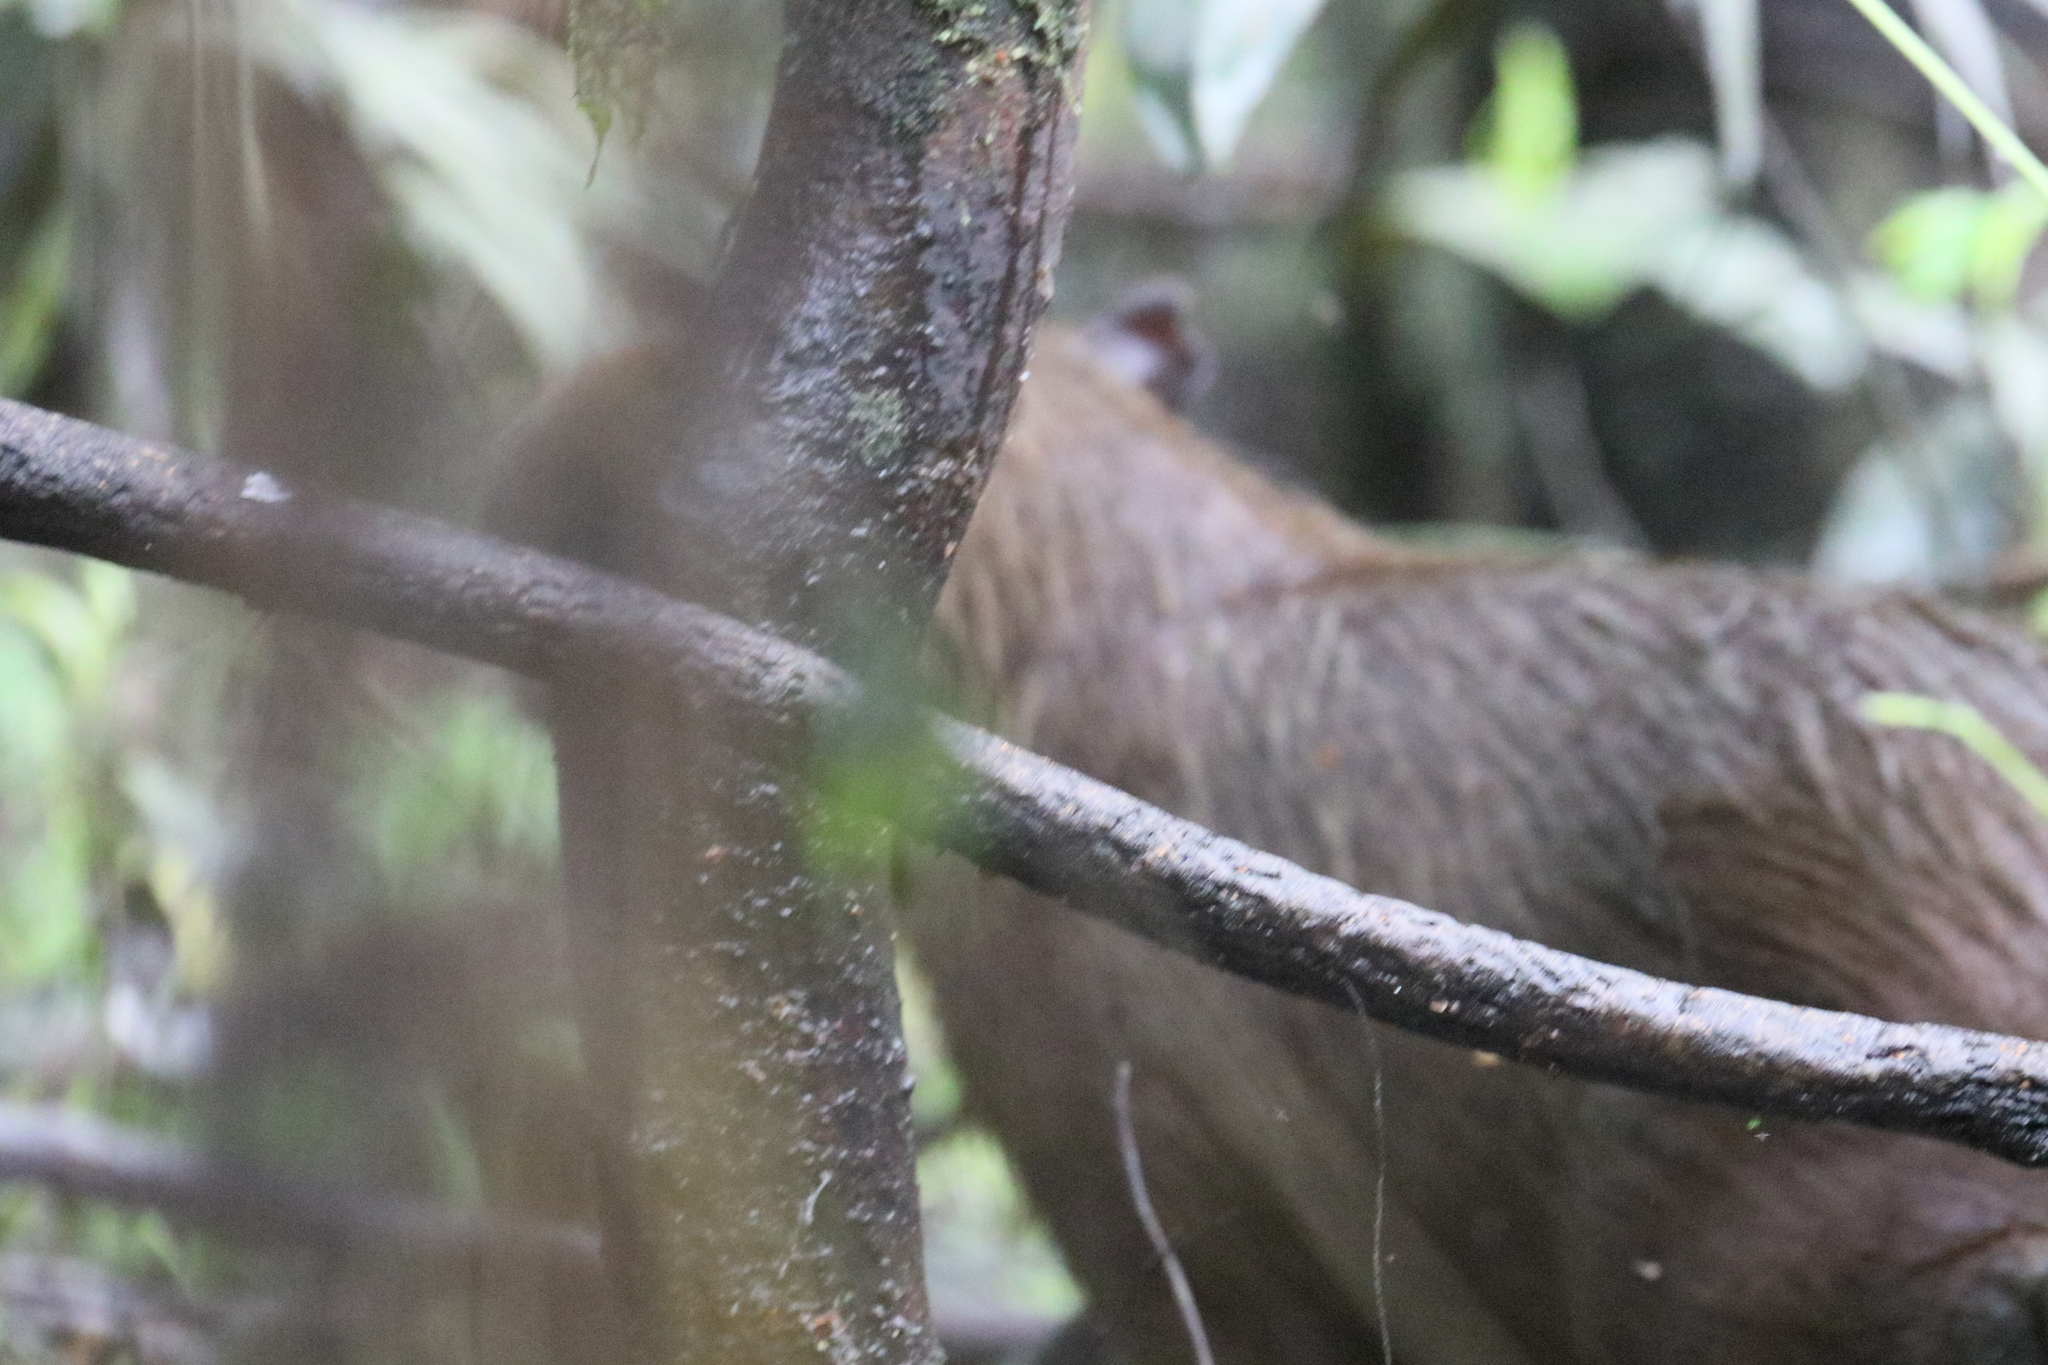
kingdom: Animalia
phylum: Chordata
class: Mammalia
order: Rodentia
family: Caviidae
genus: Hydrochoerus
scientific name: Hydrochoerus hydrochaeris
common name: Capybara
